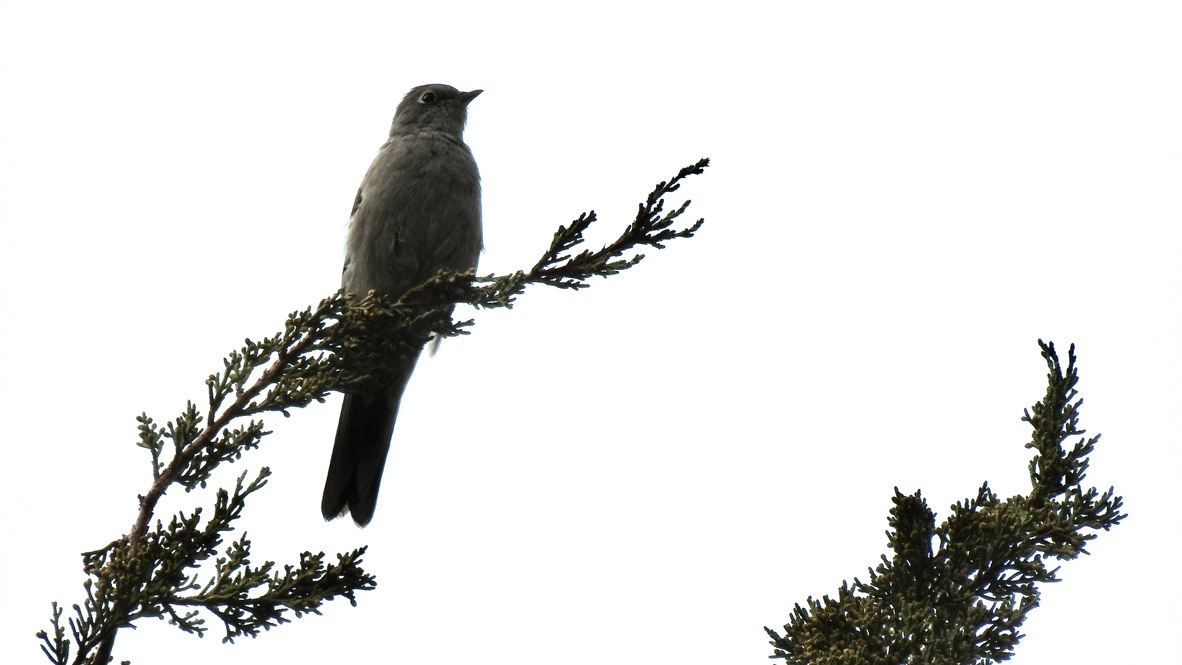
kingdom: Animalia
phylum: Chordata
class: Aves
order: Passeriformes
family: Turdidae
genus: Myadestes
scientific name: Myadestes townsendi
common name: Townsend's solitaire
